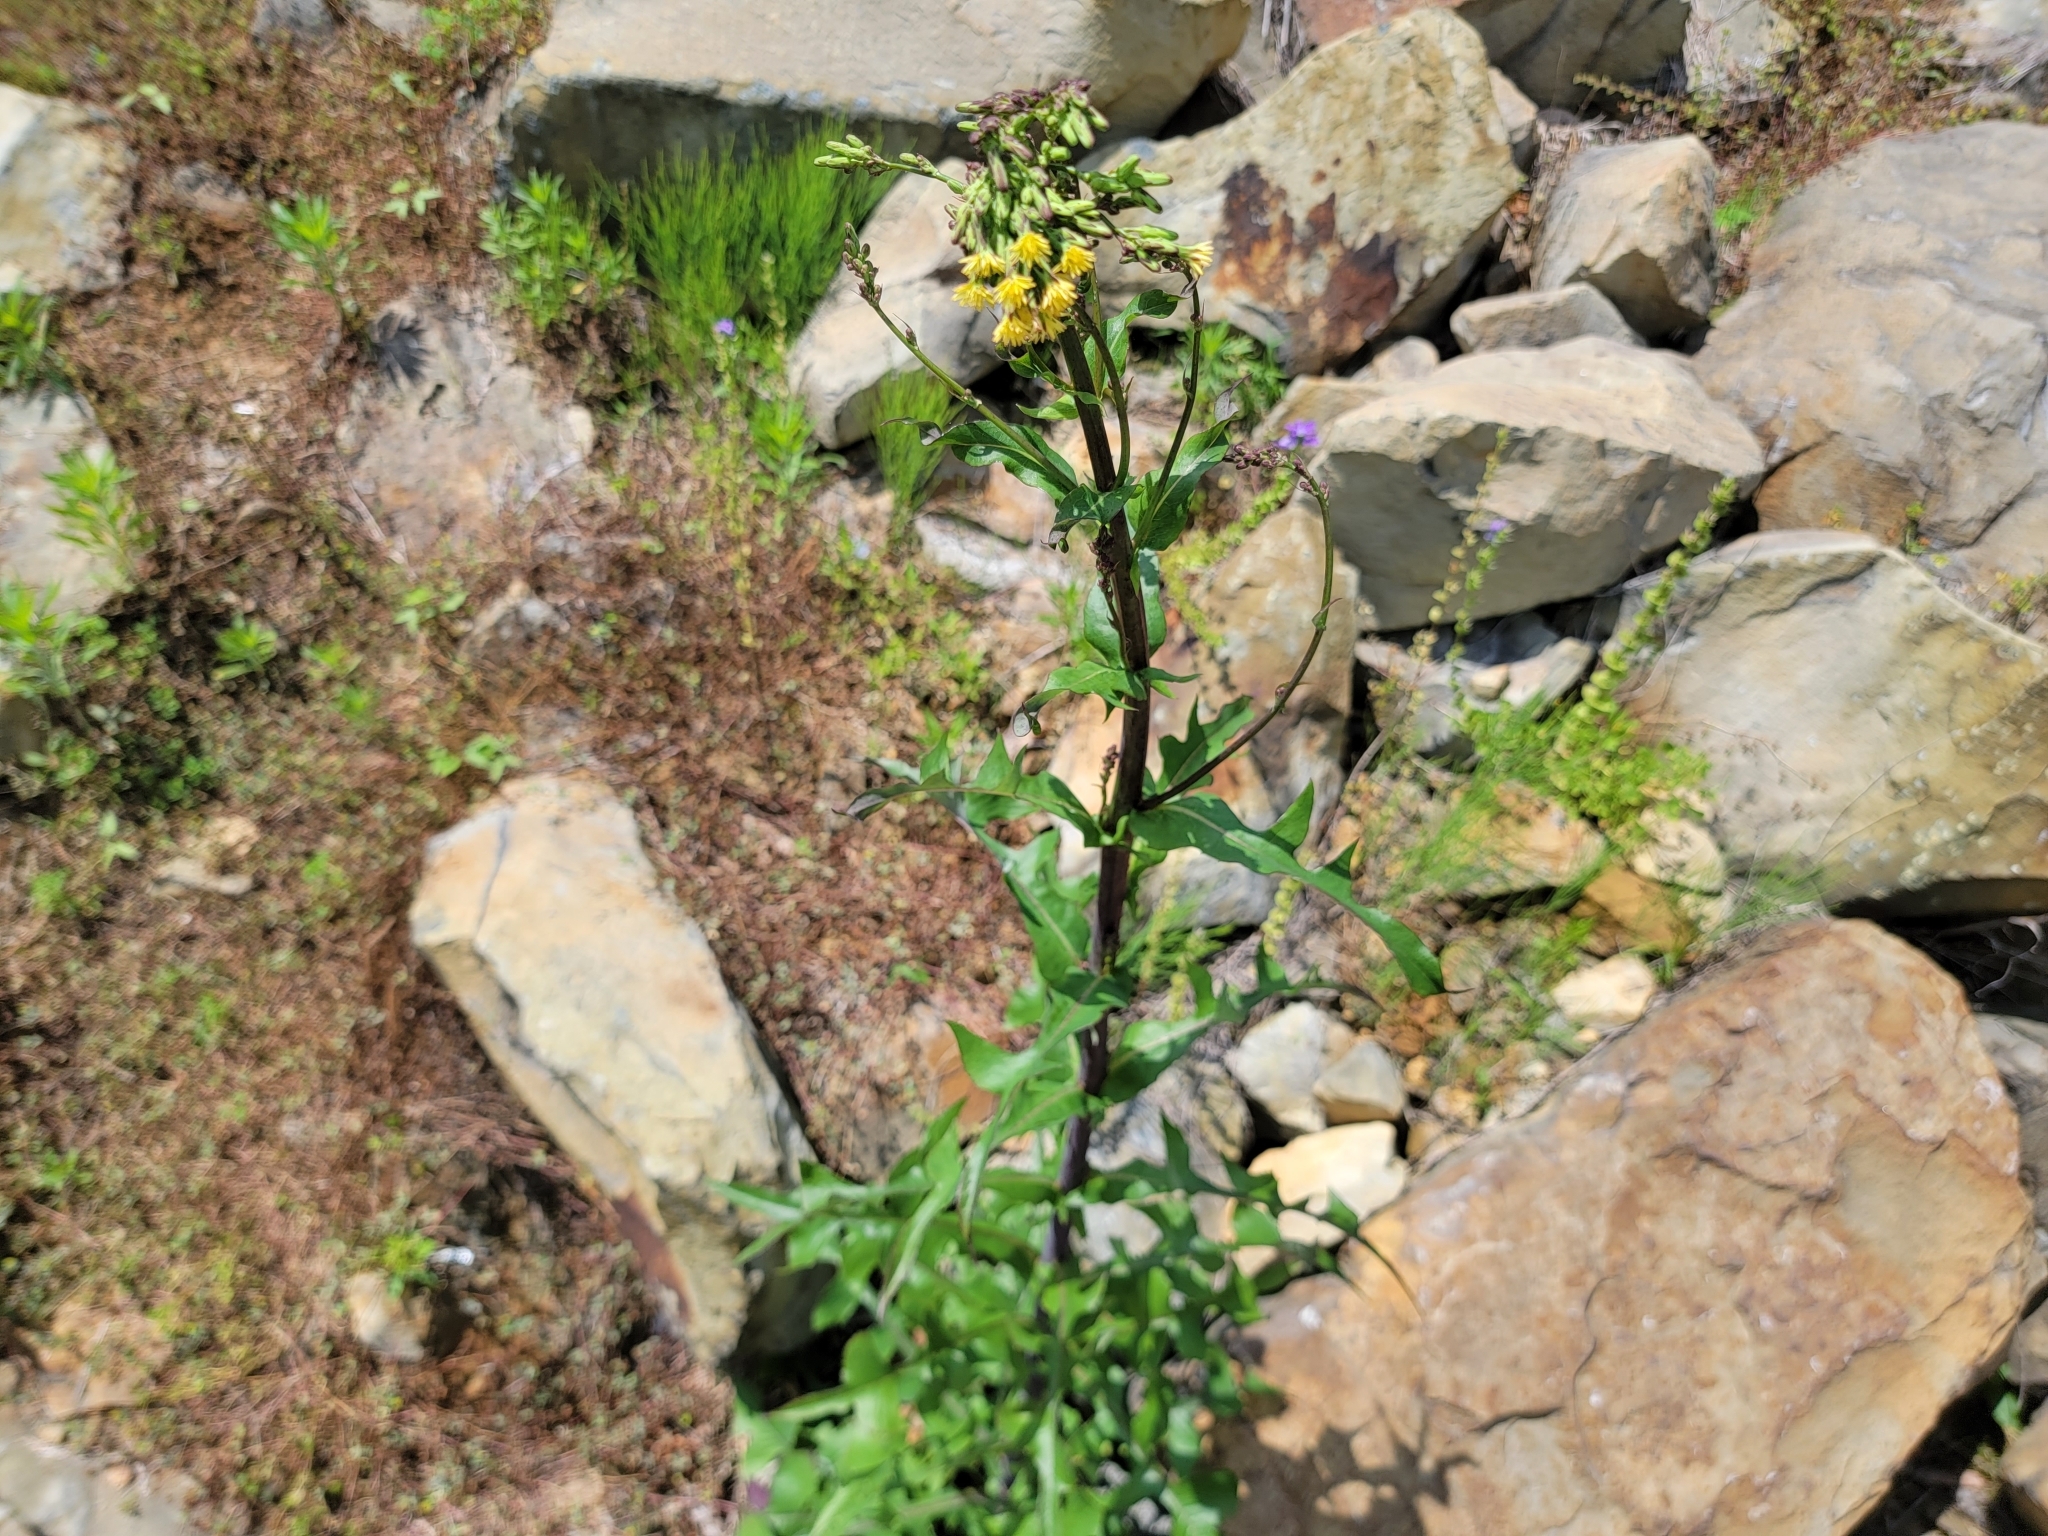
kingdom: Plantae
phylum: Tracheophyta
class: Magnoliopsida
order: Asterales
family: Asteraceae
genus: Lactuca
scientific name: Lactuca canadensis
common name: Canada lettuce
